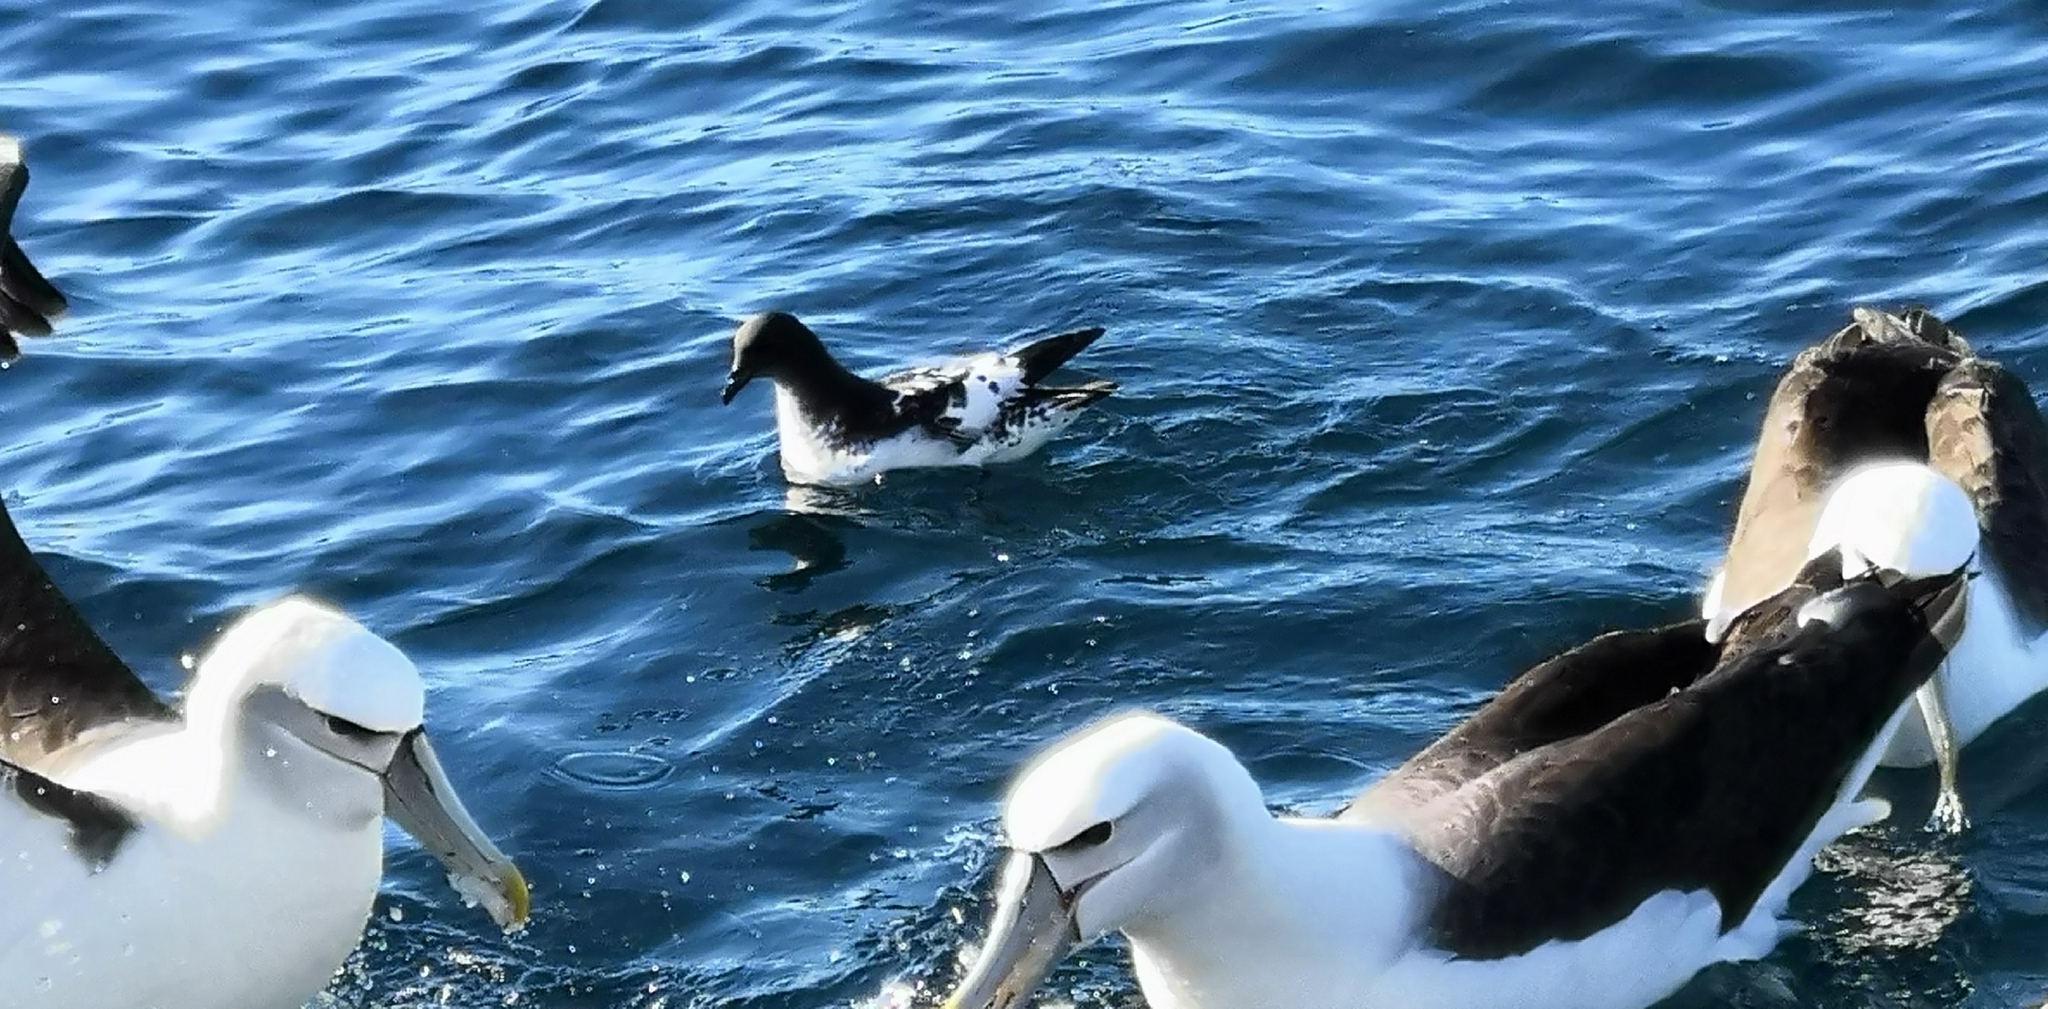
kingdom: Animalia
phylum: Chordata
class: Aves
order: Procellariiformes
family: Procellariidae
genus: Daption
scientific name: Daption capense
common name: Cape petrel
